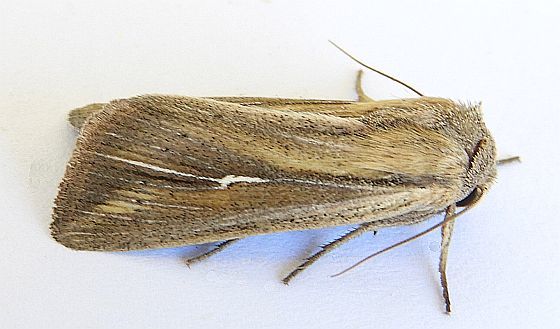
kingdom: Animalia
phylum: Arthropoda
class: Insecta
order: Lepidoptera
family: Noctuidae
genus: Leucania
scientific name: Leucania imperfecta
